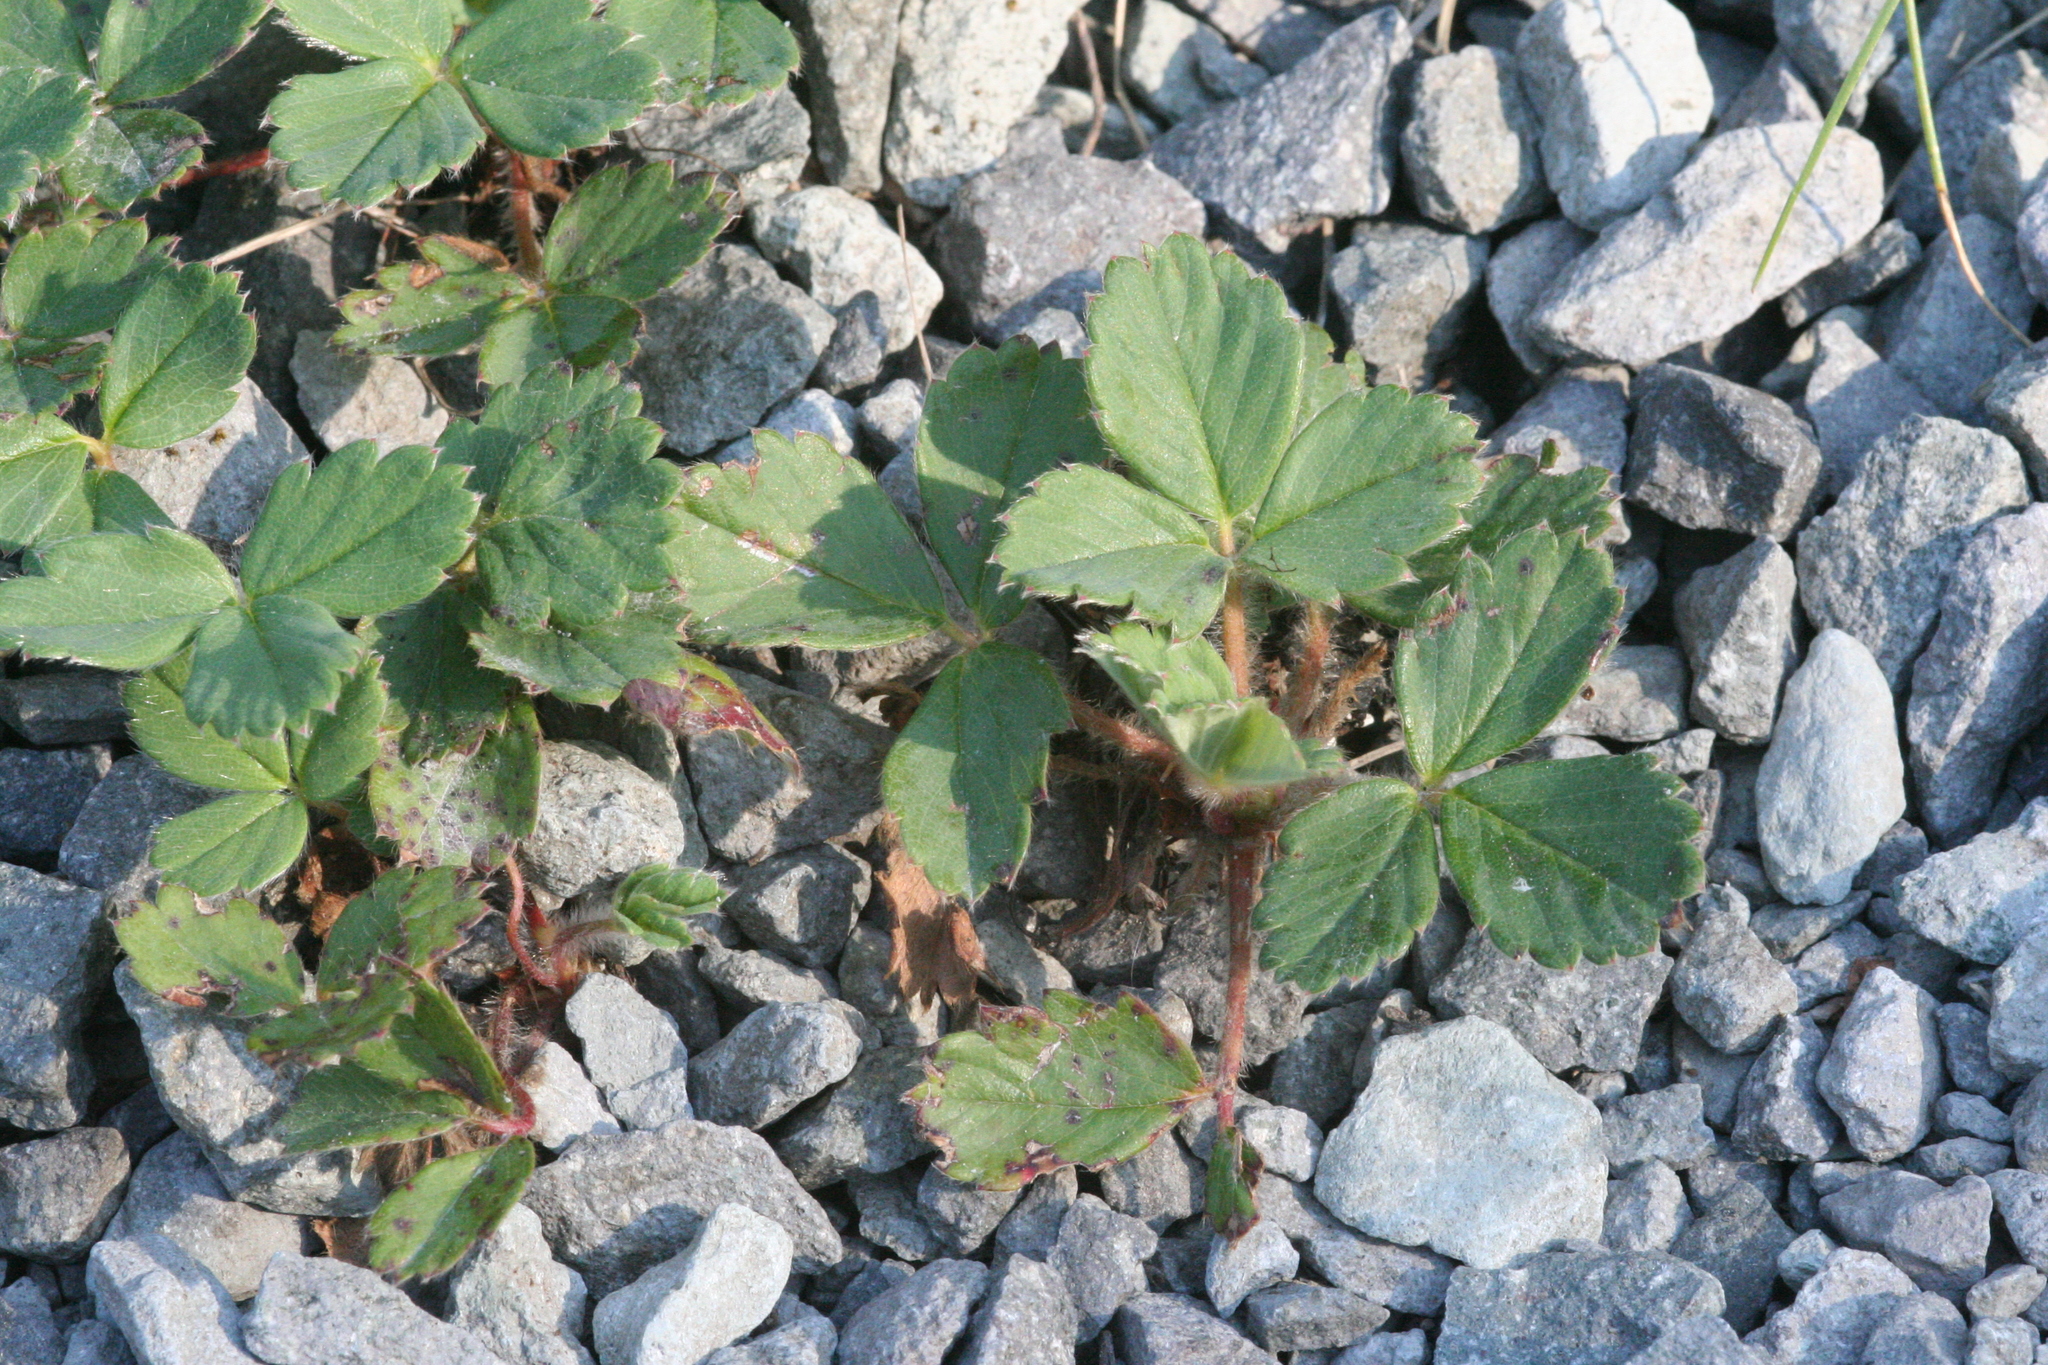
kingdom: Plantae
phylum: Tracheophyta
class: Magnoliopsida
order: Rosales
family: Rosaceae
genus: Fragaria
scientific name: Fragaria vesca
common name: Wild strawberry
